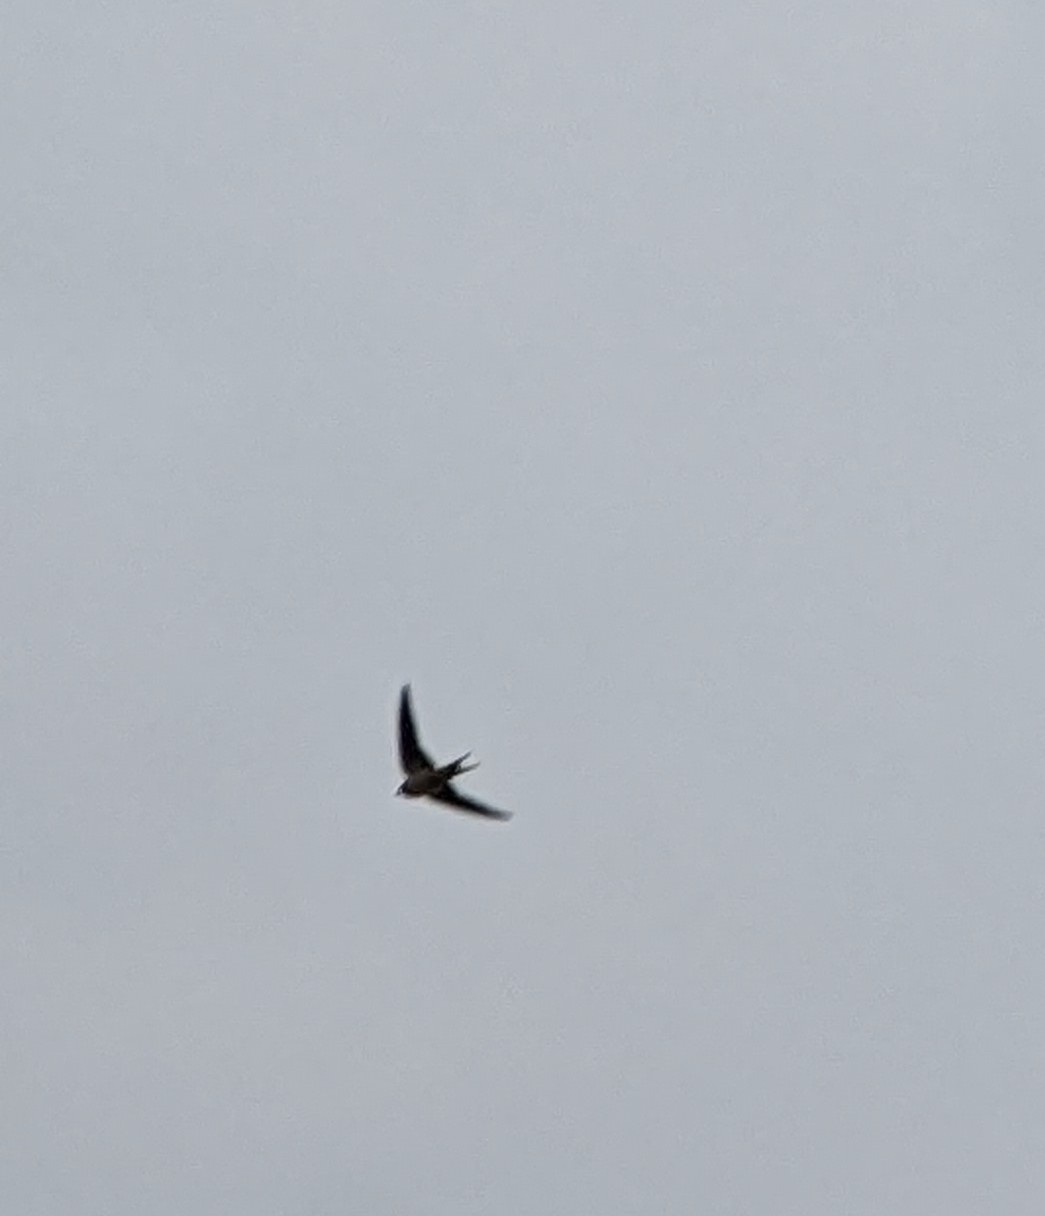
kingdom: Animalia
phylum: Chordata
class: Aves
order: Passeriformes
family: Hirundinidae
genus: Hirundo
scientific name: Hirundo rustica
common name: Barn swallow
